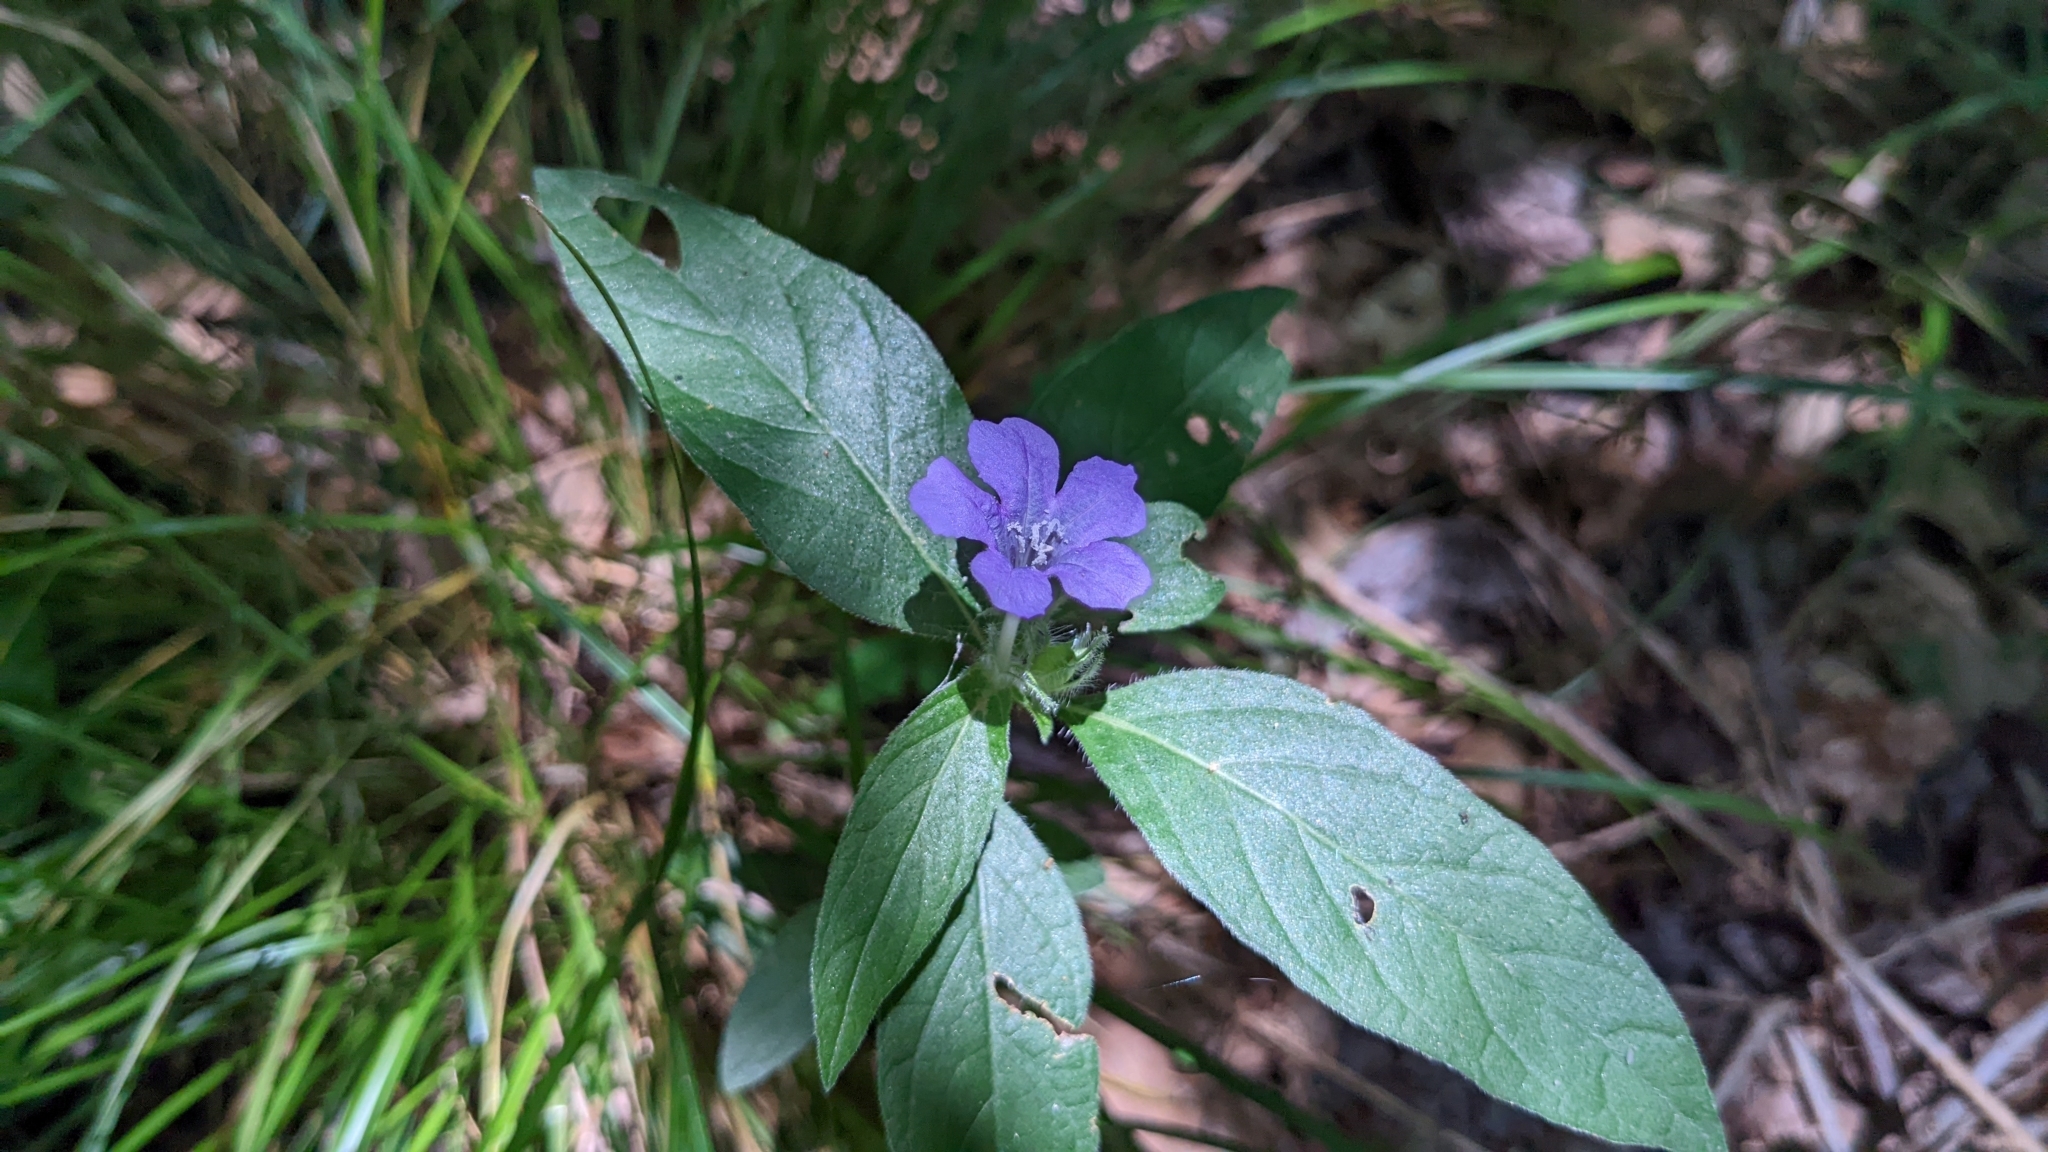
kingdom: Plantae
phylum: Tracheophyta
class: Magnoliopsida
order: Lamiales
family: Acanthaceae
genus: Ruellia
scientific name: Ruellia caroliniensis
